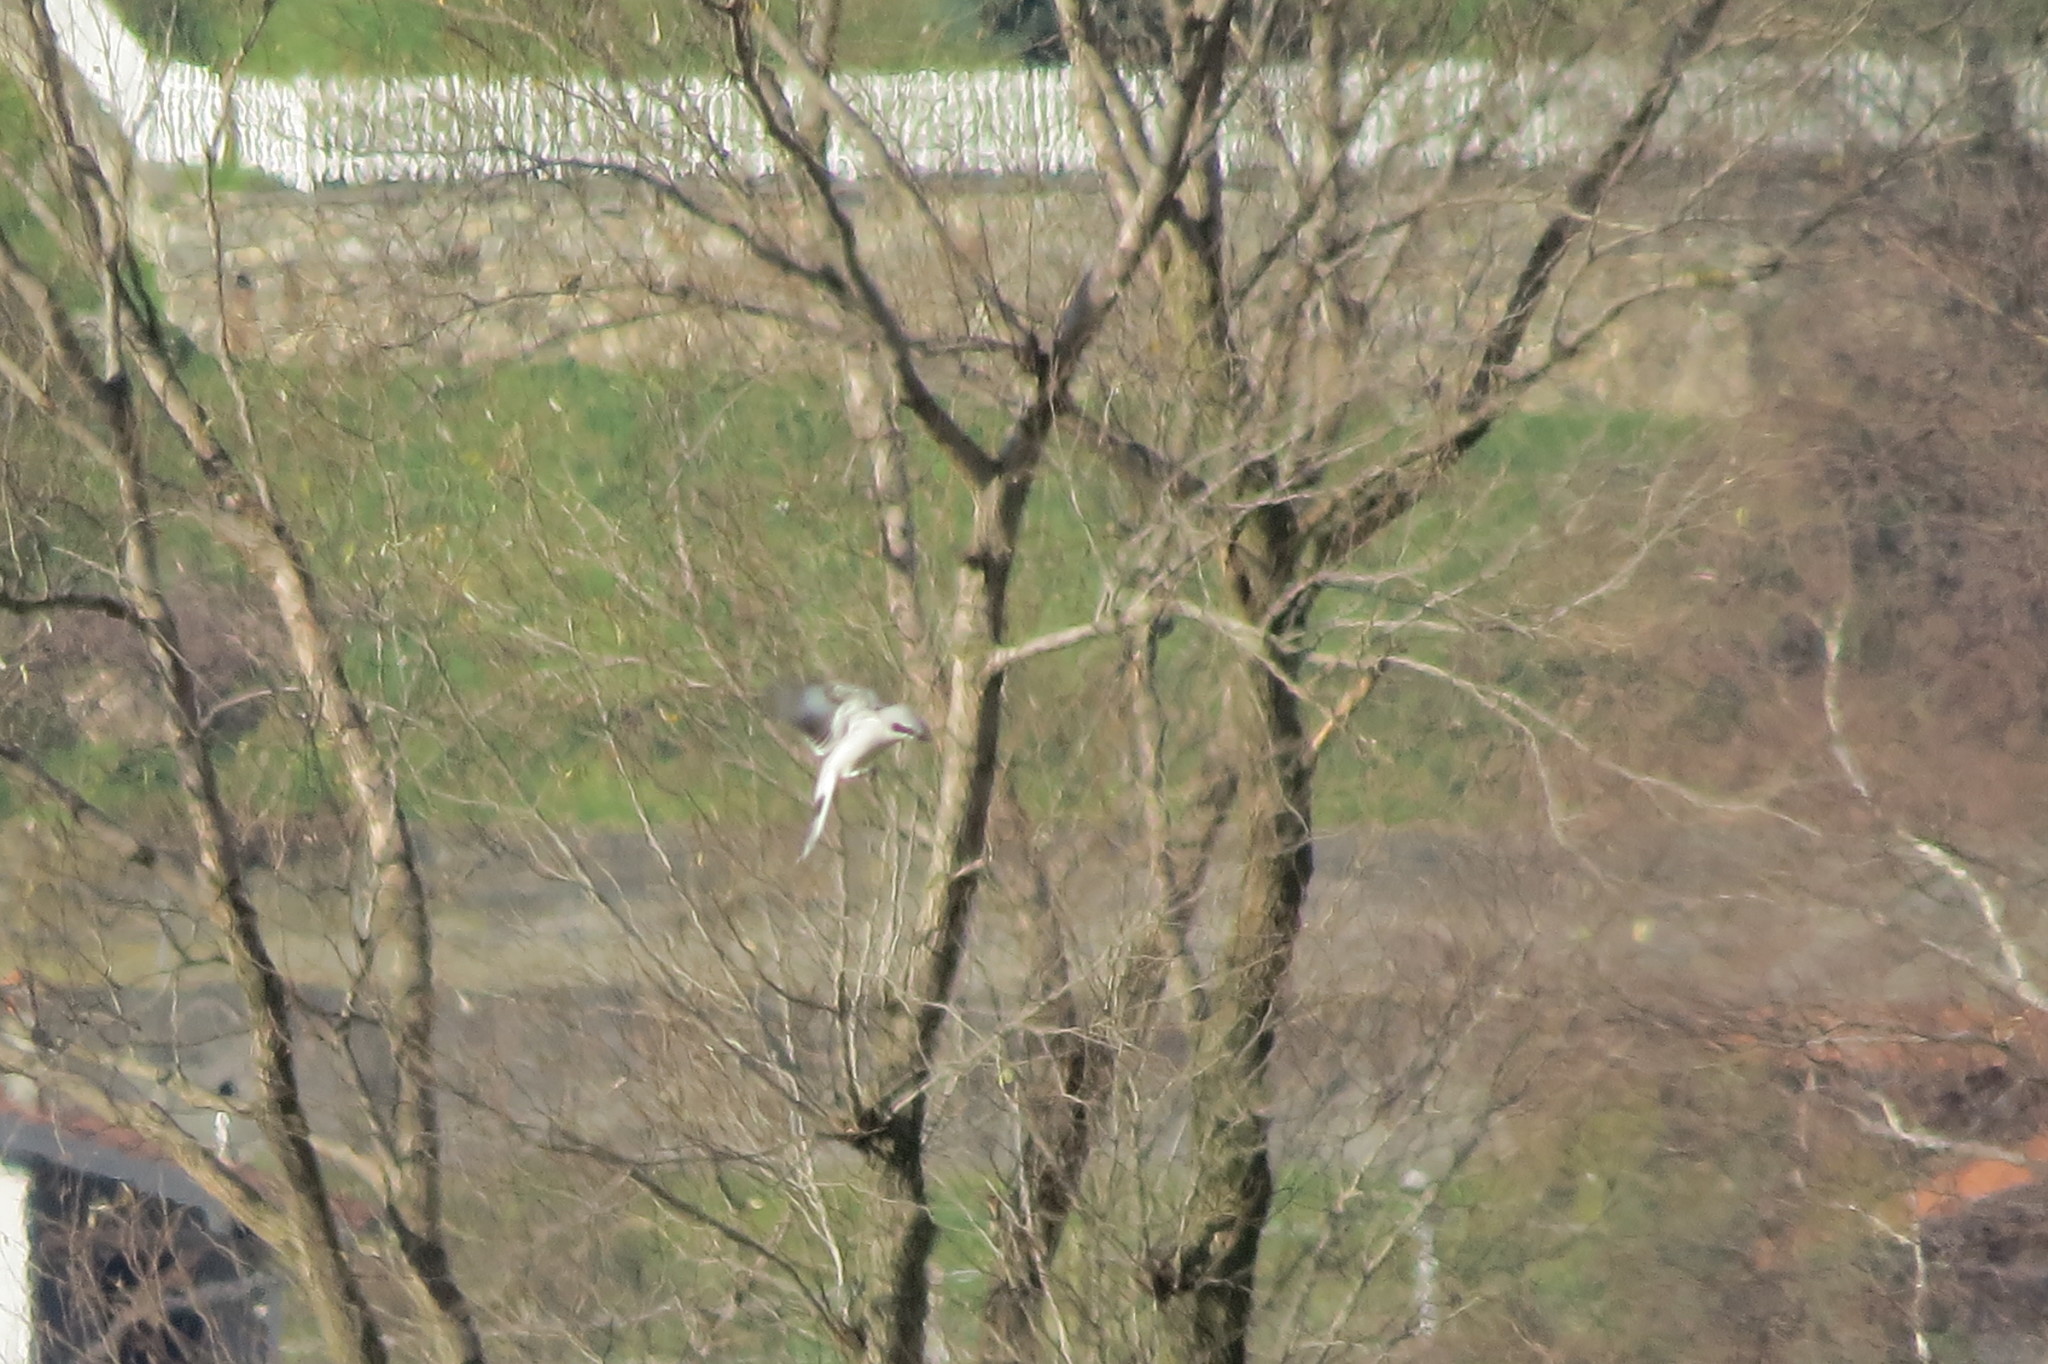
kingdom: Animalia
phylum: Chordata
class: Aves
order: Passeriformes
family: Laniidae
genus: Lanius
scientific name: Lanius excubitor
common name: Great grey shrike
